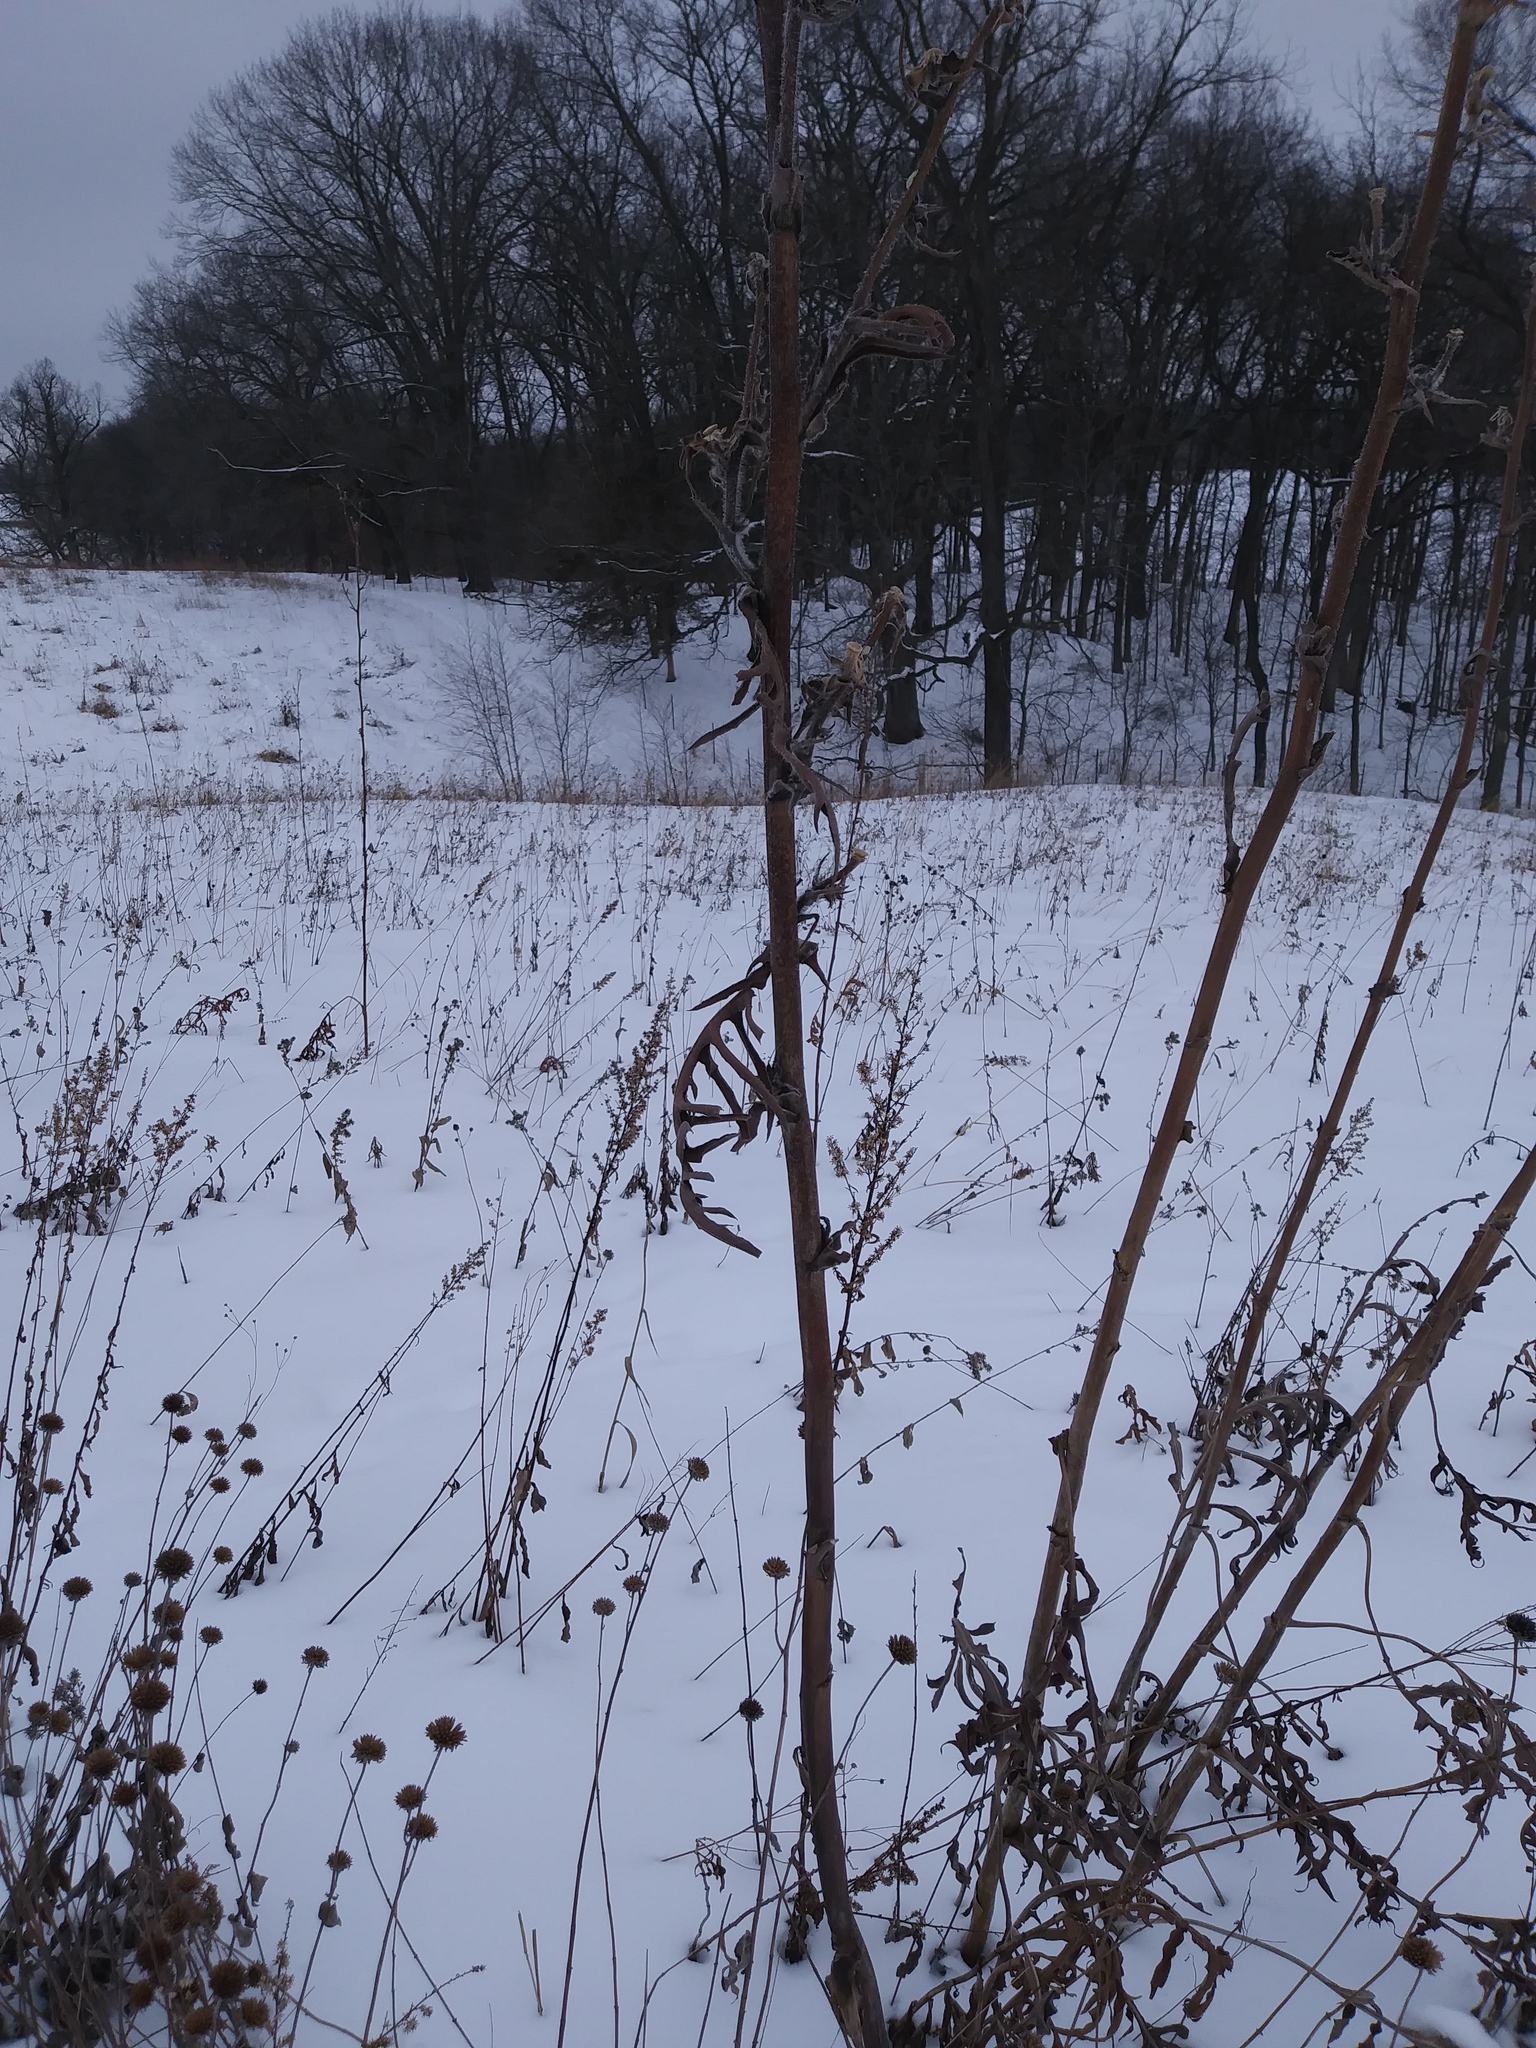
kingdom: Plantae
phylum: Tracheophyta
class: Magnoliopsida
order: Asterales
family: Asteraceae
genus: Silphium
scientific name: Silphium laciniatum
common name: Polarplant
